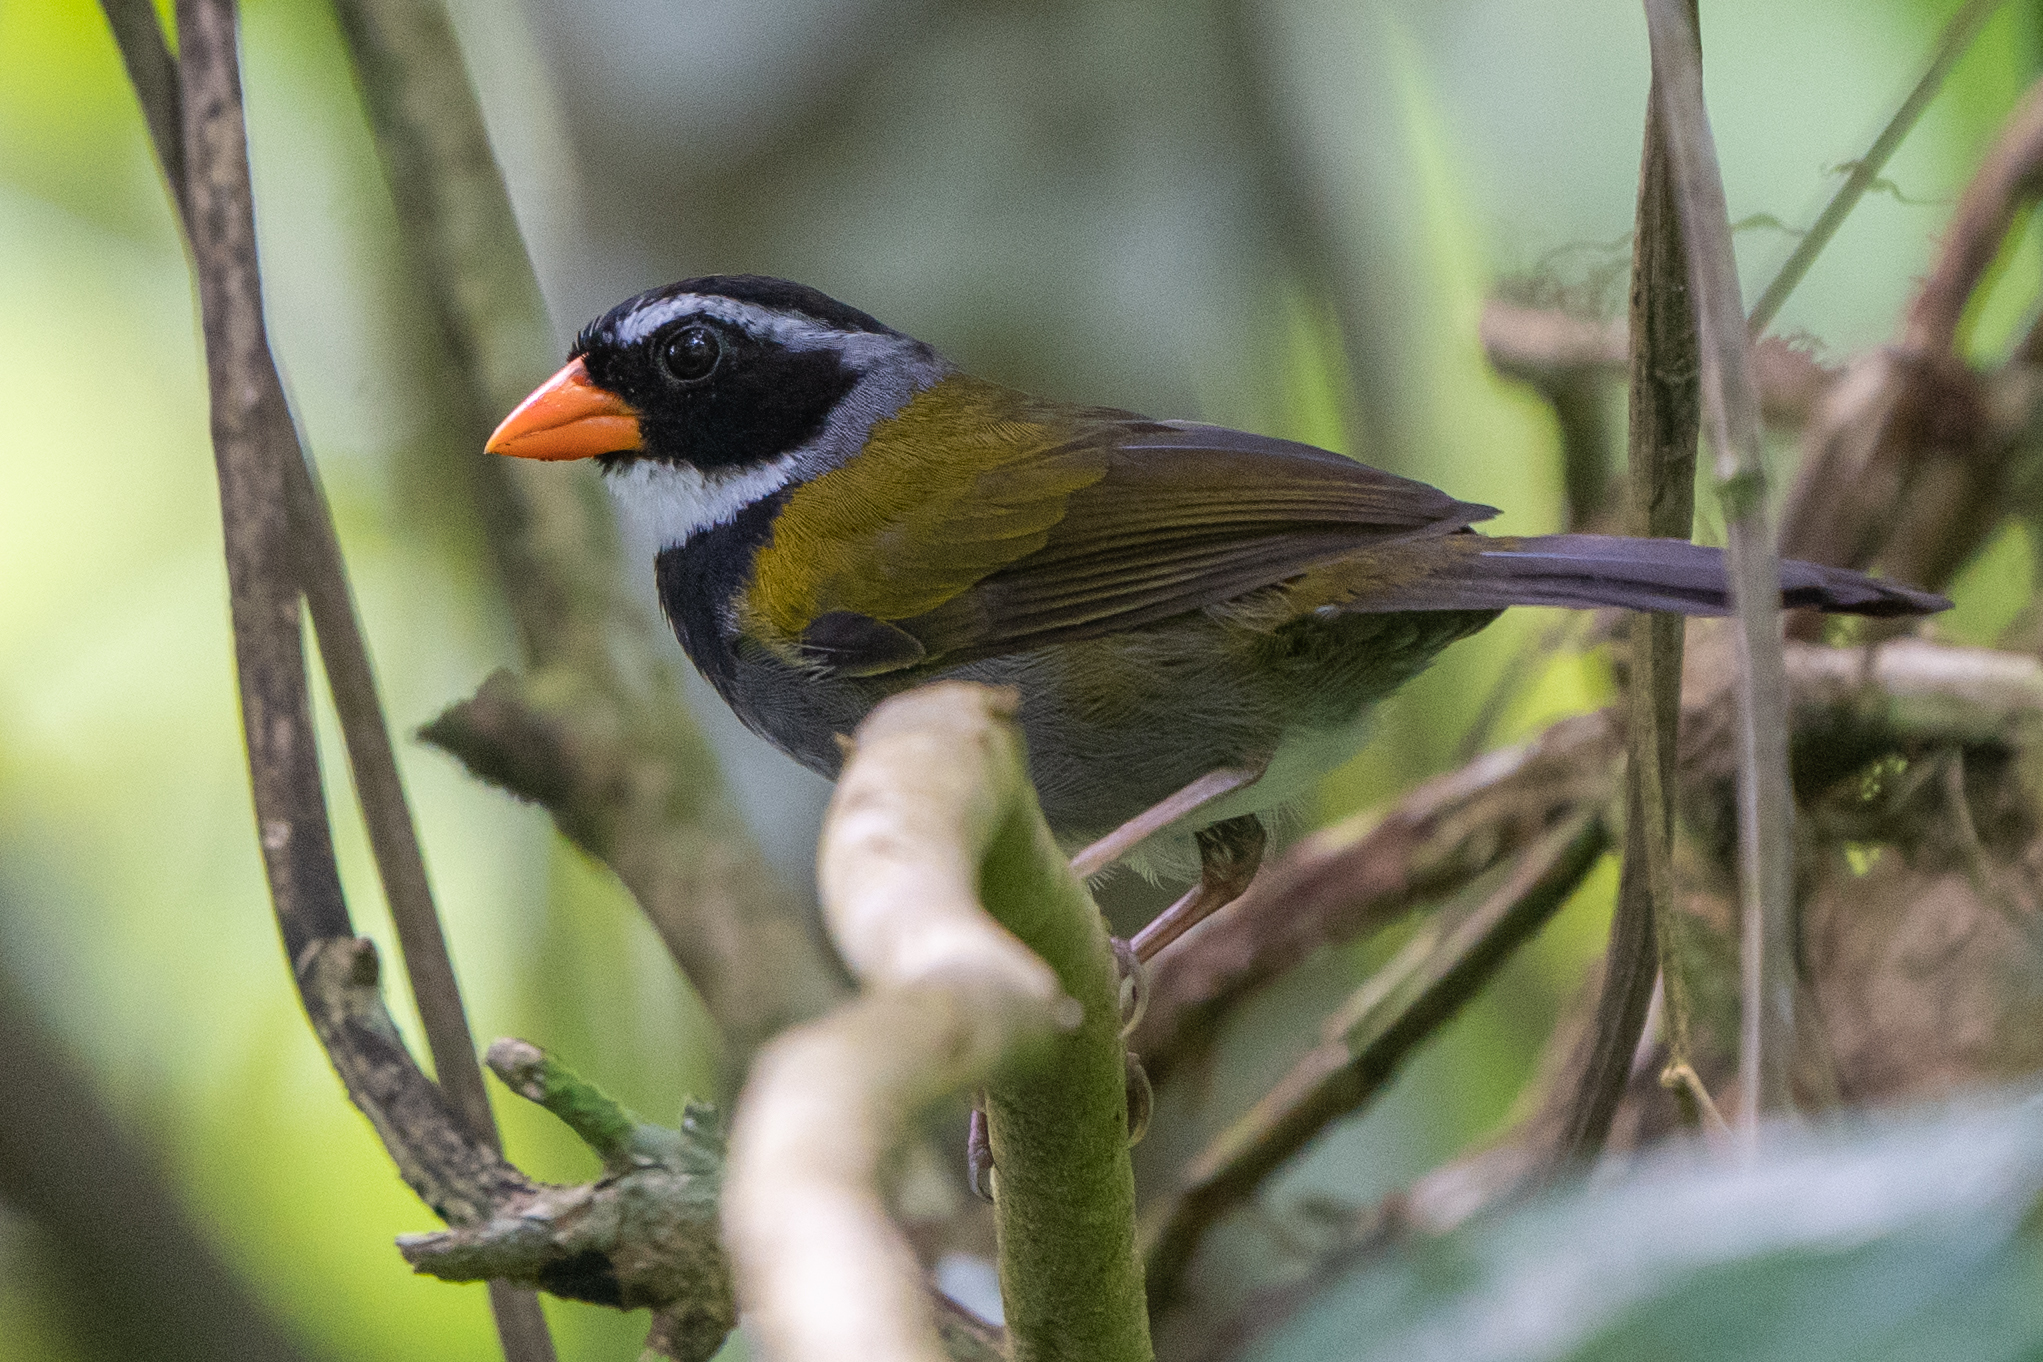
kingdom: Animalia
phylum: Chordata
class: Aves
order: Passeriformes
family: Passerellidae
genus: Arremon
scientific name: Arremon aurantiirostris
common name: Orange-billed sparrow
